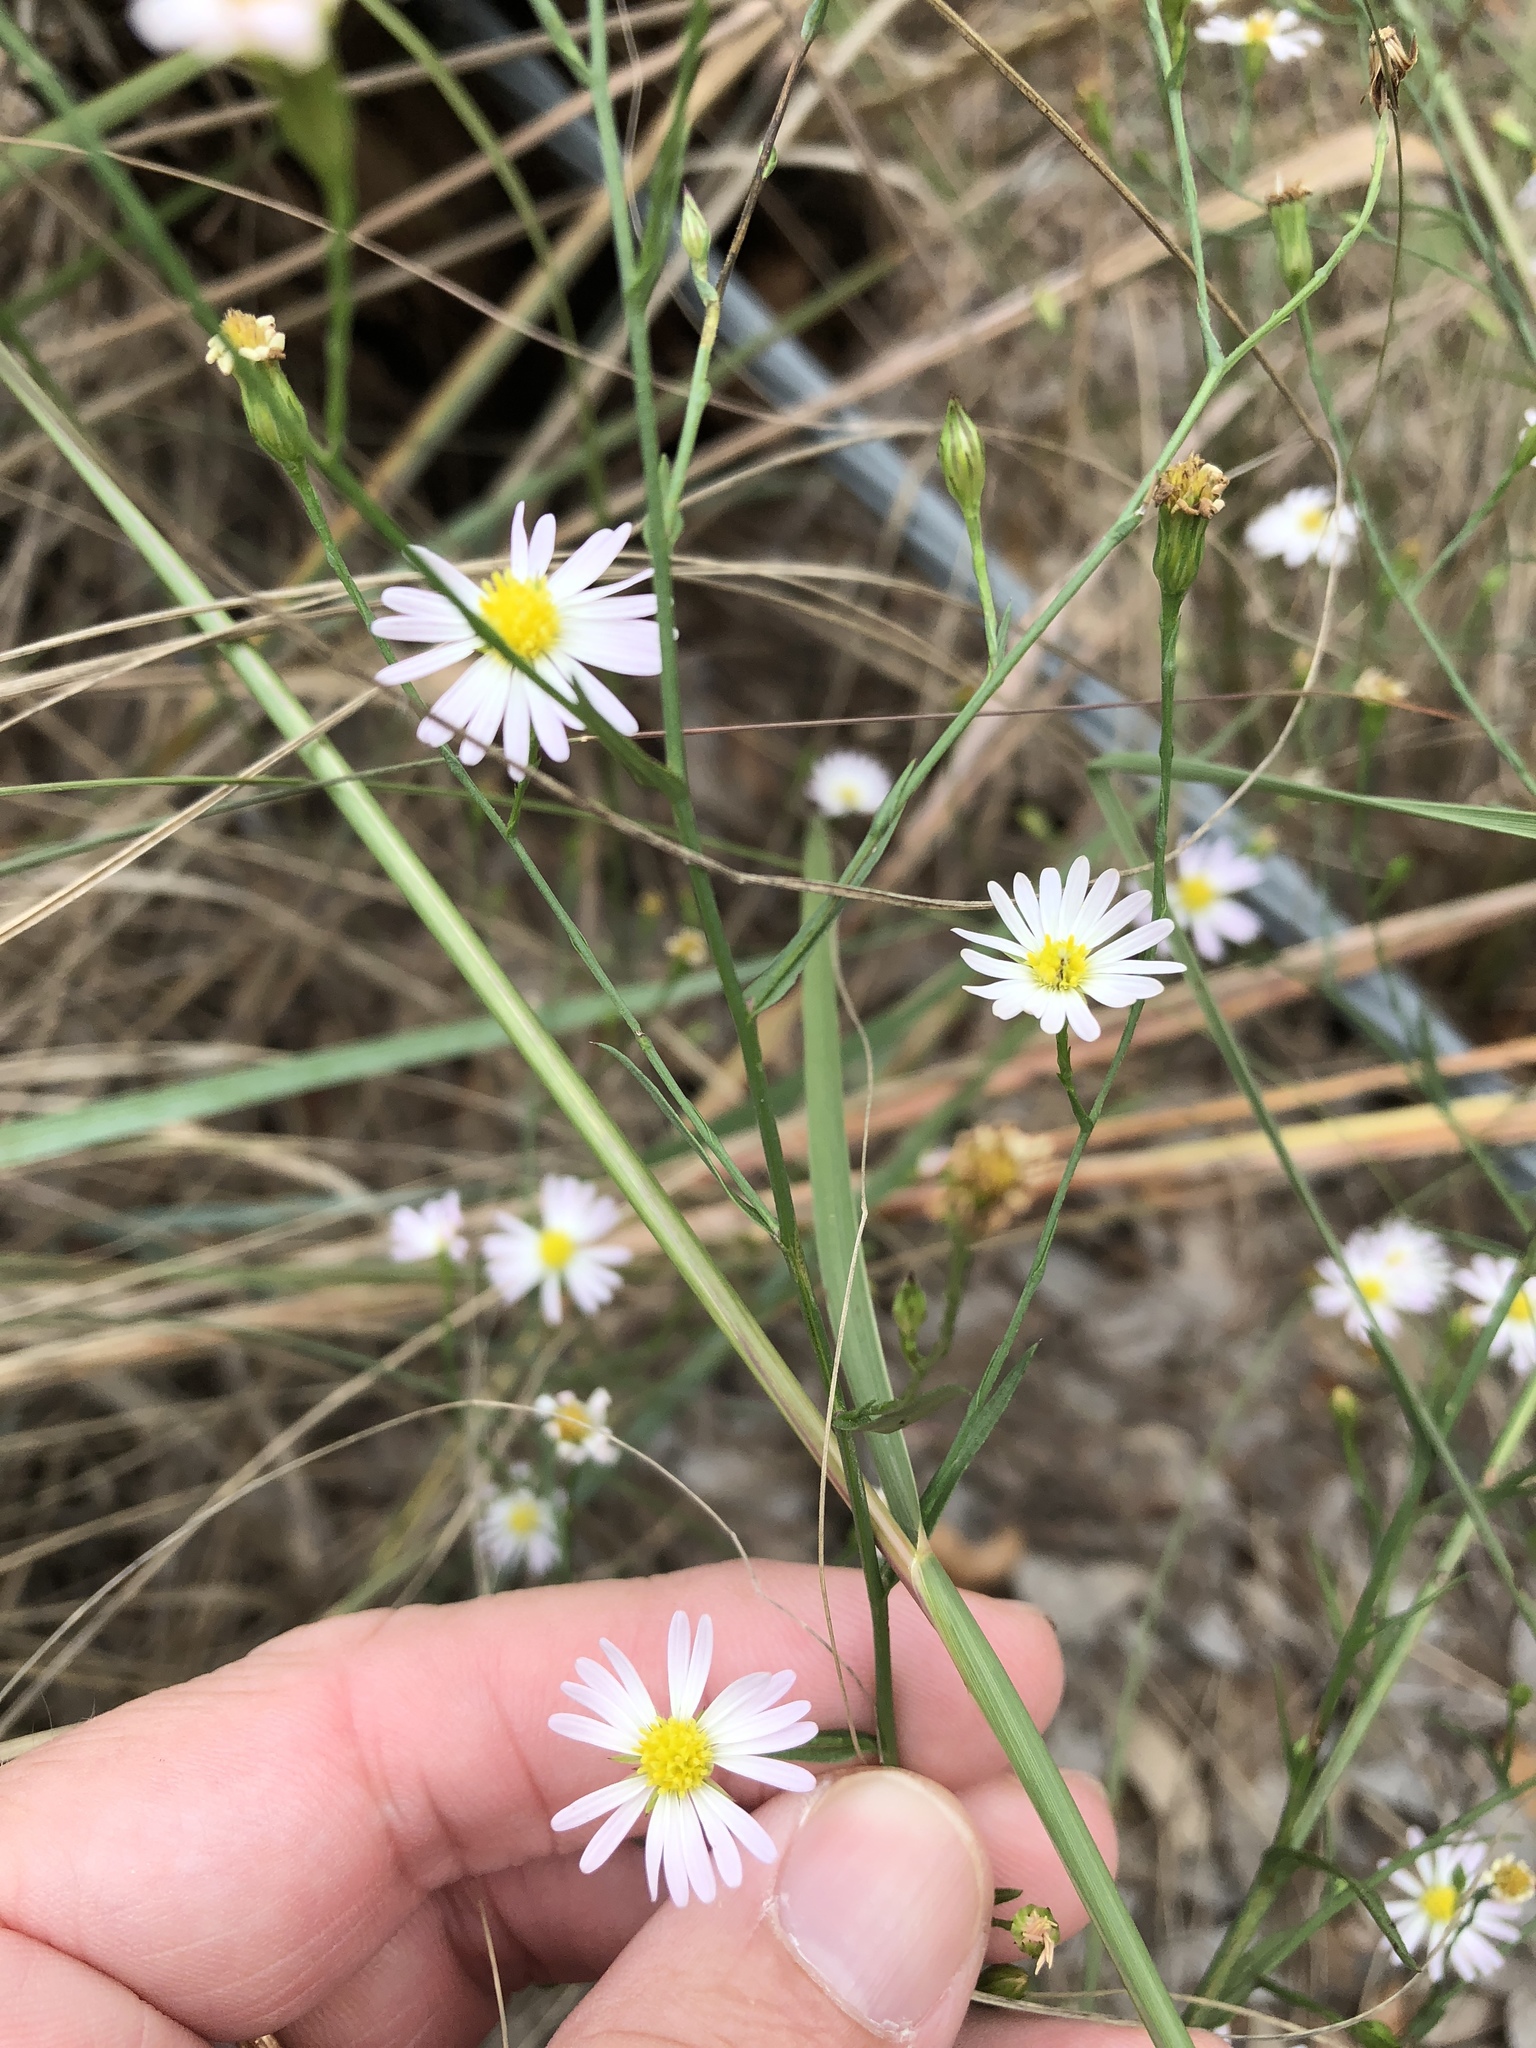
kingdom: Plantae
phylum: Tracheophyta
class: Magnoliopsida
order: Asterales
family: Asteraceae
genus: Symphyotrichum
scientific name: Symphyotrichum divaricatum
